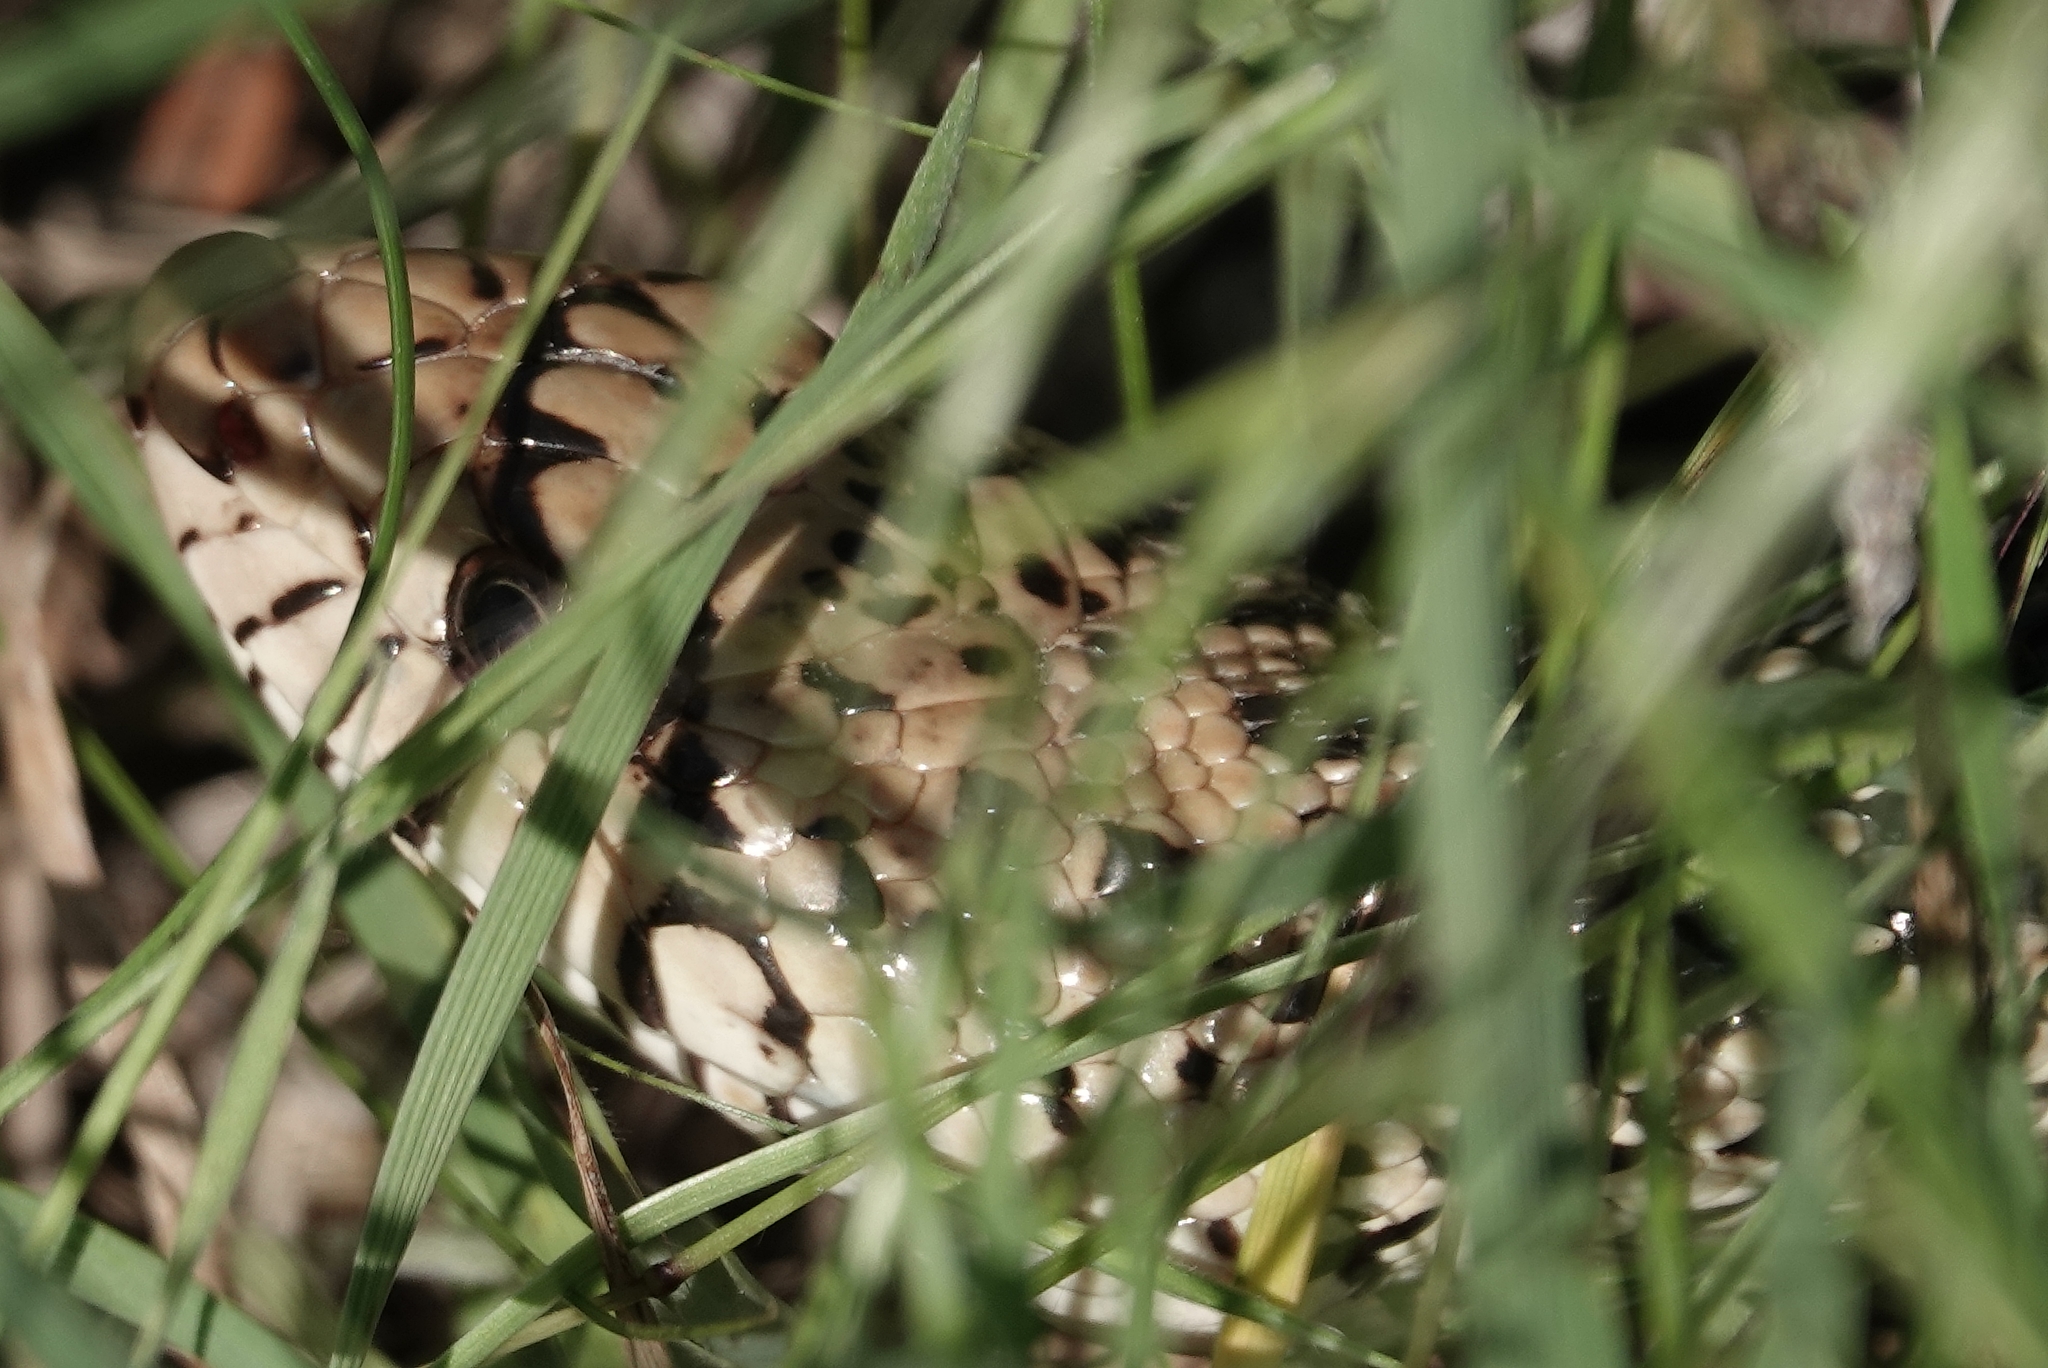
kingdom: Animalia
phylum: Chordata
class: Squamata
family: Colubridae
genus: Pituophis
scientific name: Pituophis catenifer
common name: Gopher snake
